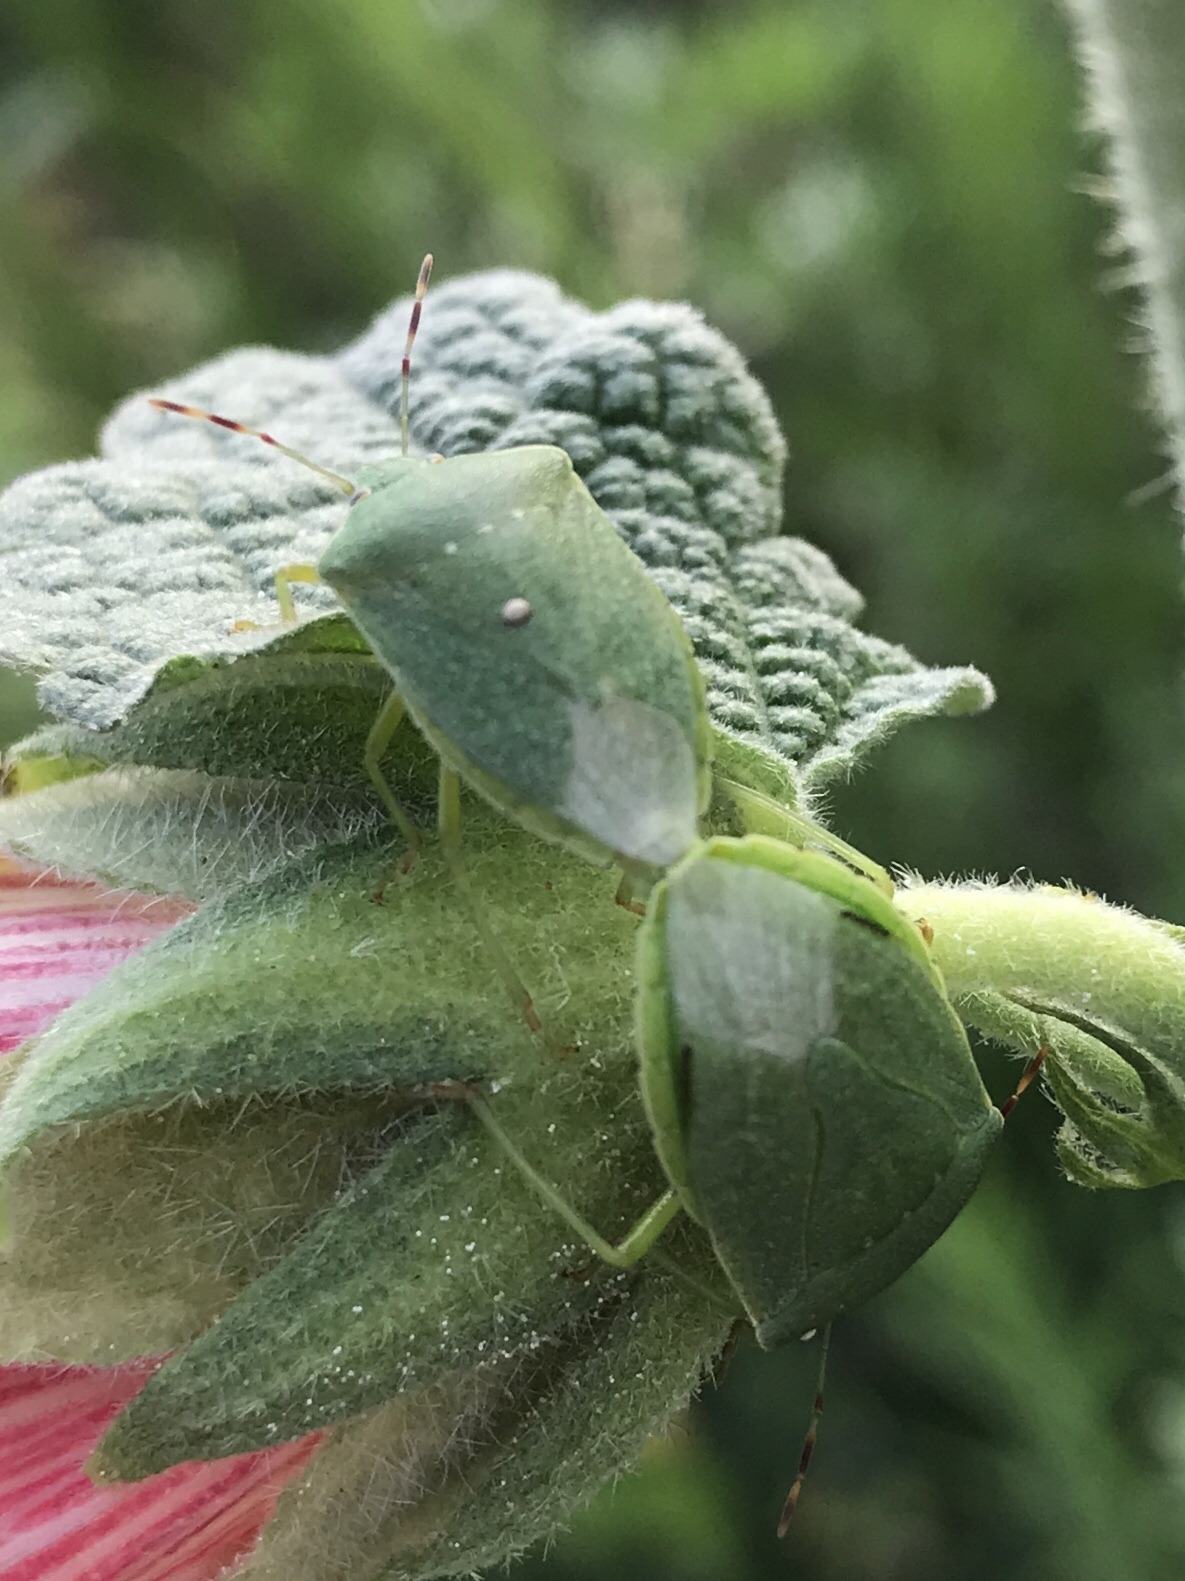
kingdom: Animalia
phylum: Arthropoda
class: Insecta
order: Hemiptera
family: Pentatomidae
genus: Nezara
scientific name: Nezara viridula
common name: Southern green stink bug
